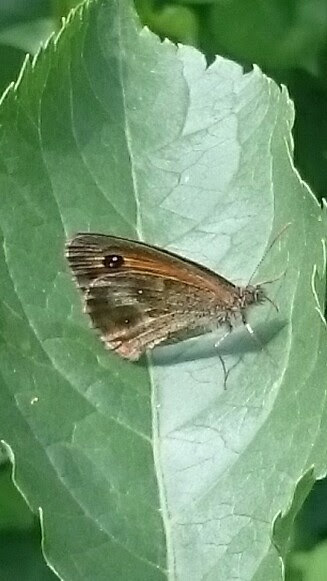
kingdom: Animalia
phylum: Arthropoda
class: Insecta
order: Lepidoptera
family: Nymphalidae
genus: Pyronia
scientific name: Pyronia tithonus
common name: Gatekeeper
